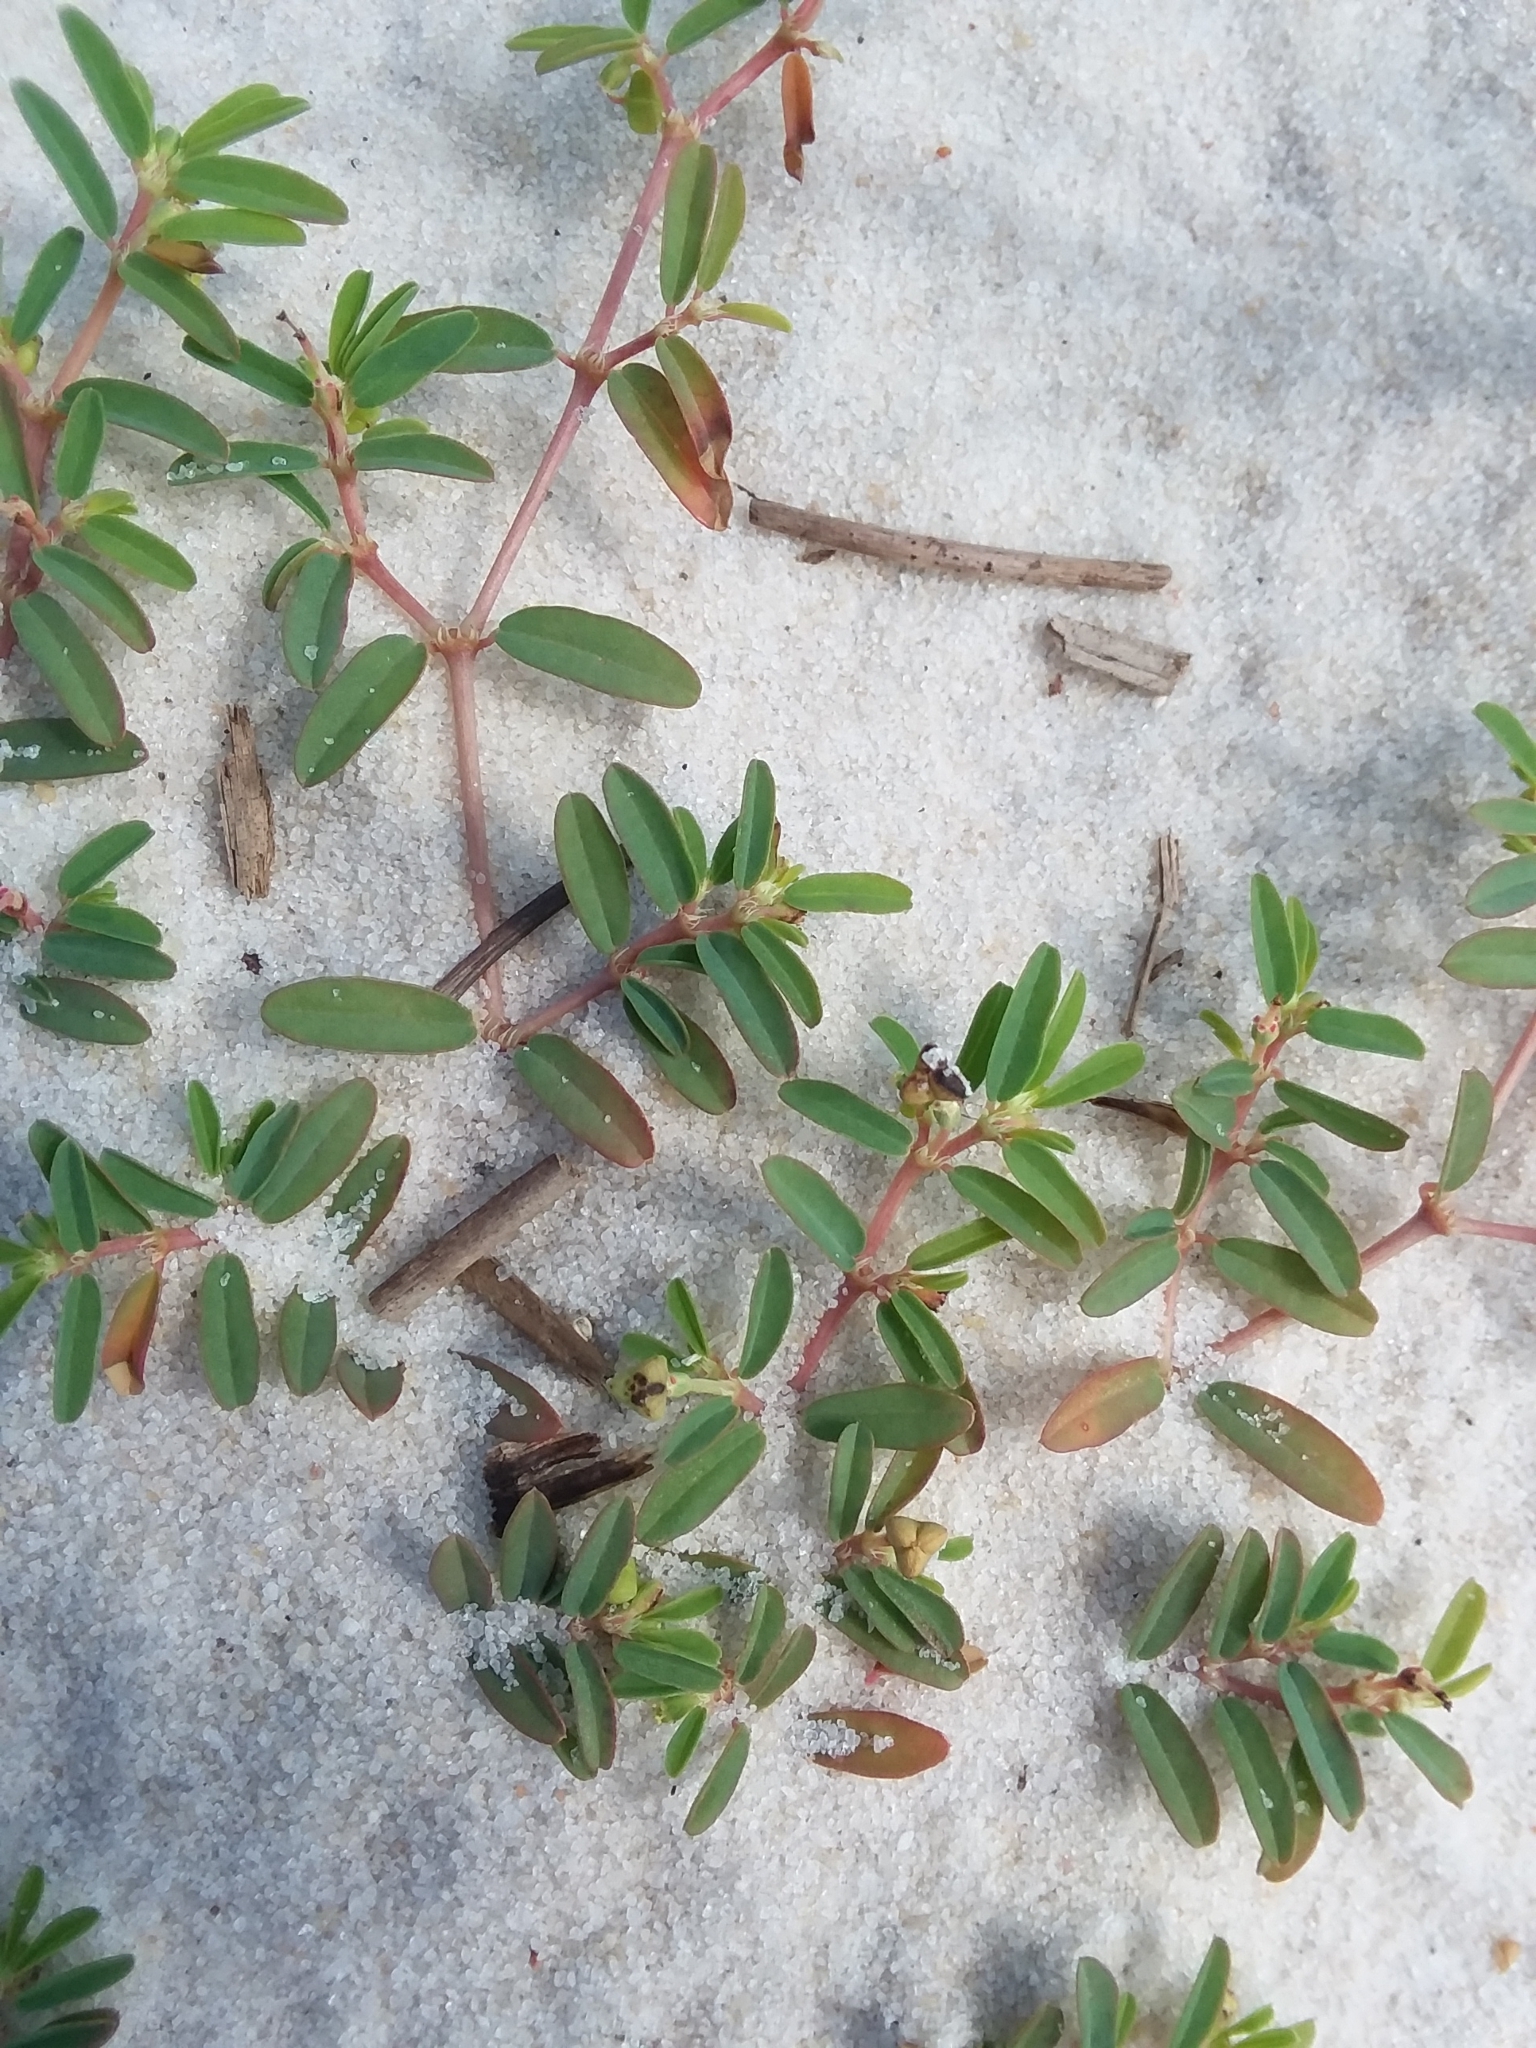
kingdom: Plantae
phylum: Tracheophyta
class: Magnoliopsida
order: Malpighiales
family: Euphorbiaceae
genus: Euphorbia
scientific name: Euphorbia bombensis
